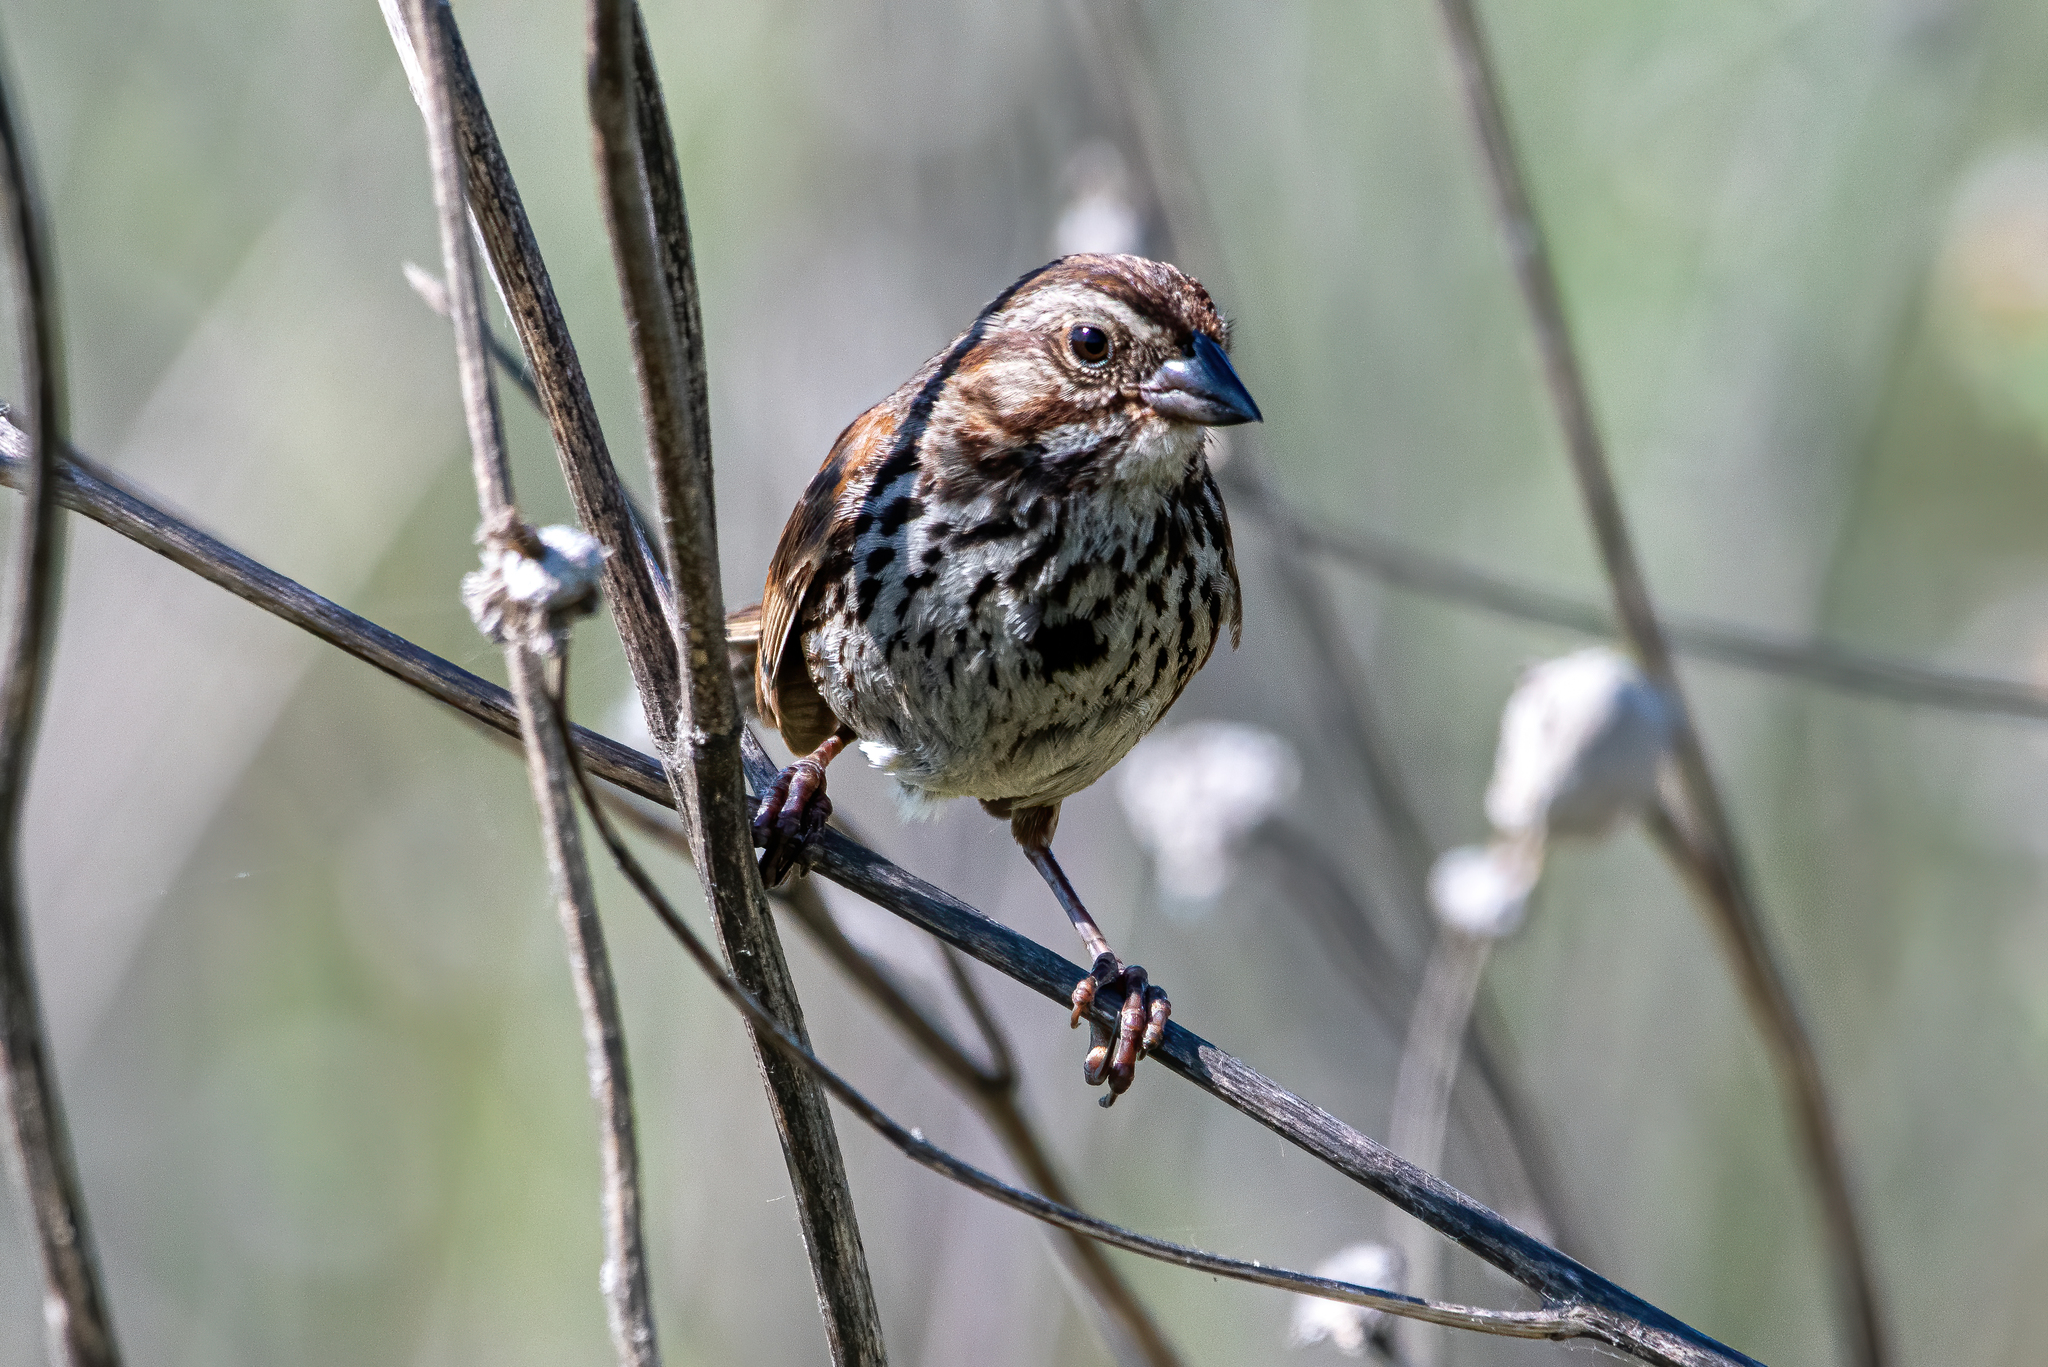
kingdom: Animalia
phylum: Chordata
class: Aves
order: Passeriformes
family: Passerellidae
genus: Melospiza
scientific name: Melospiza melodia
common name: Song sparrow
